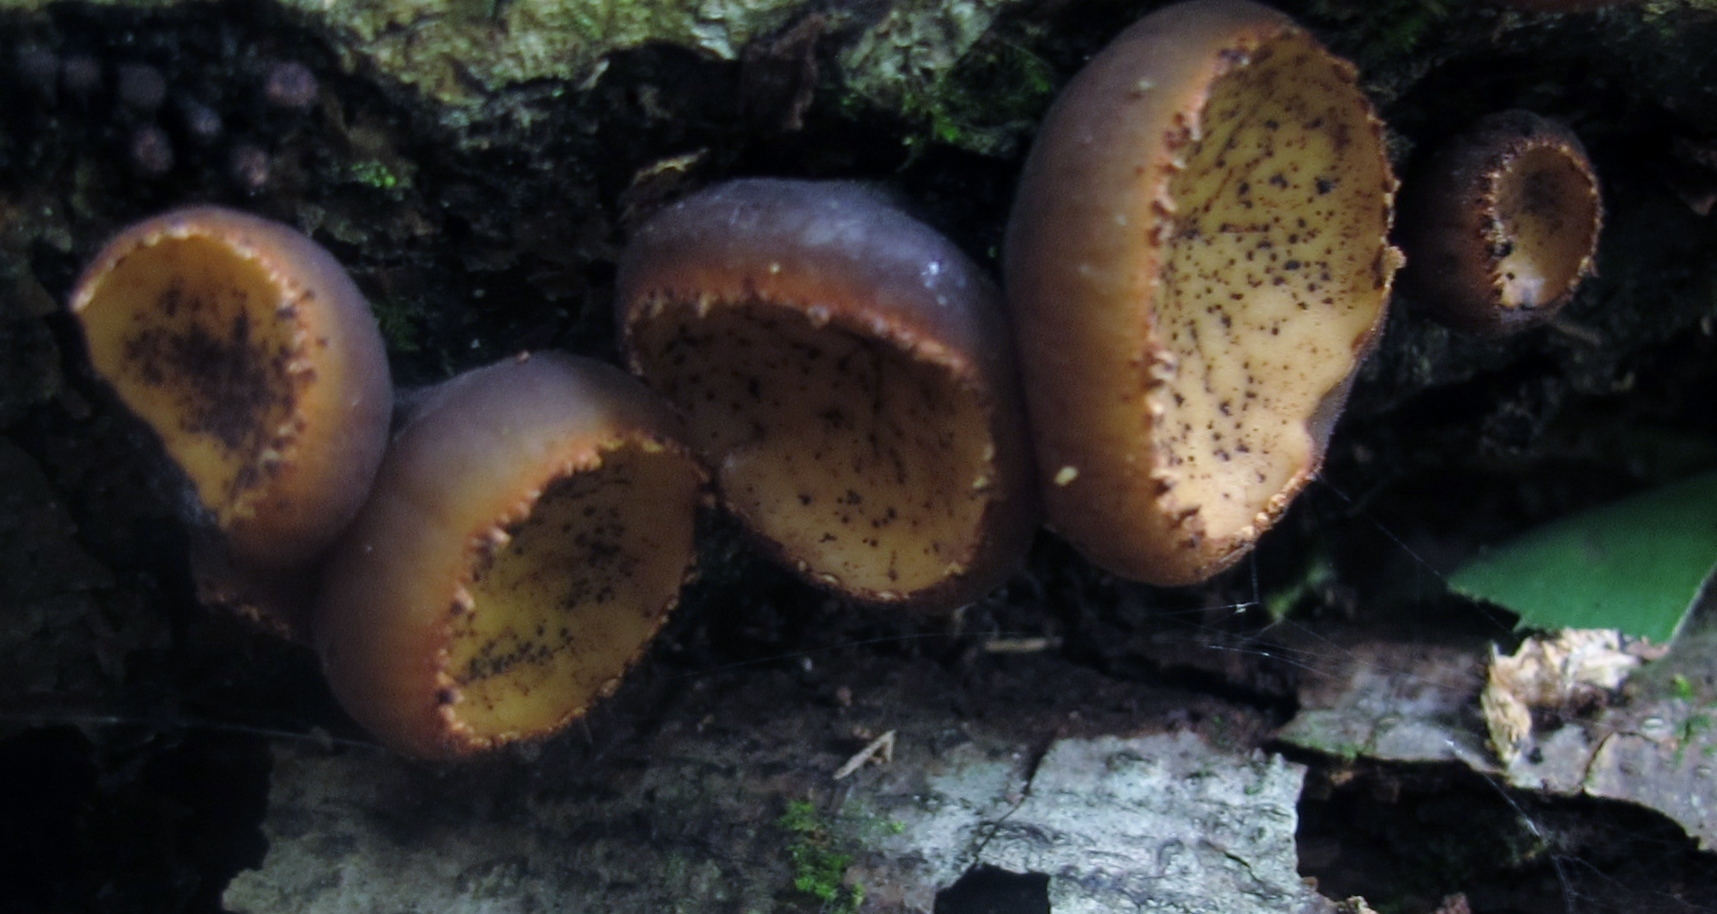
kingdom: Fungi
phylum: Ascomycota
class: Pezizomycetes
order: Pezizales
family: Sarcosomataceae
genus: Galiella
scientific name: Galiella rufa
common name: Hairy rubber cup
